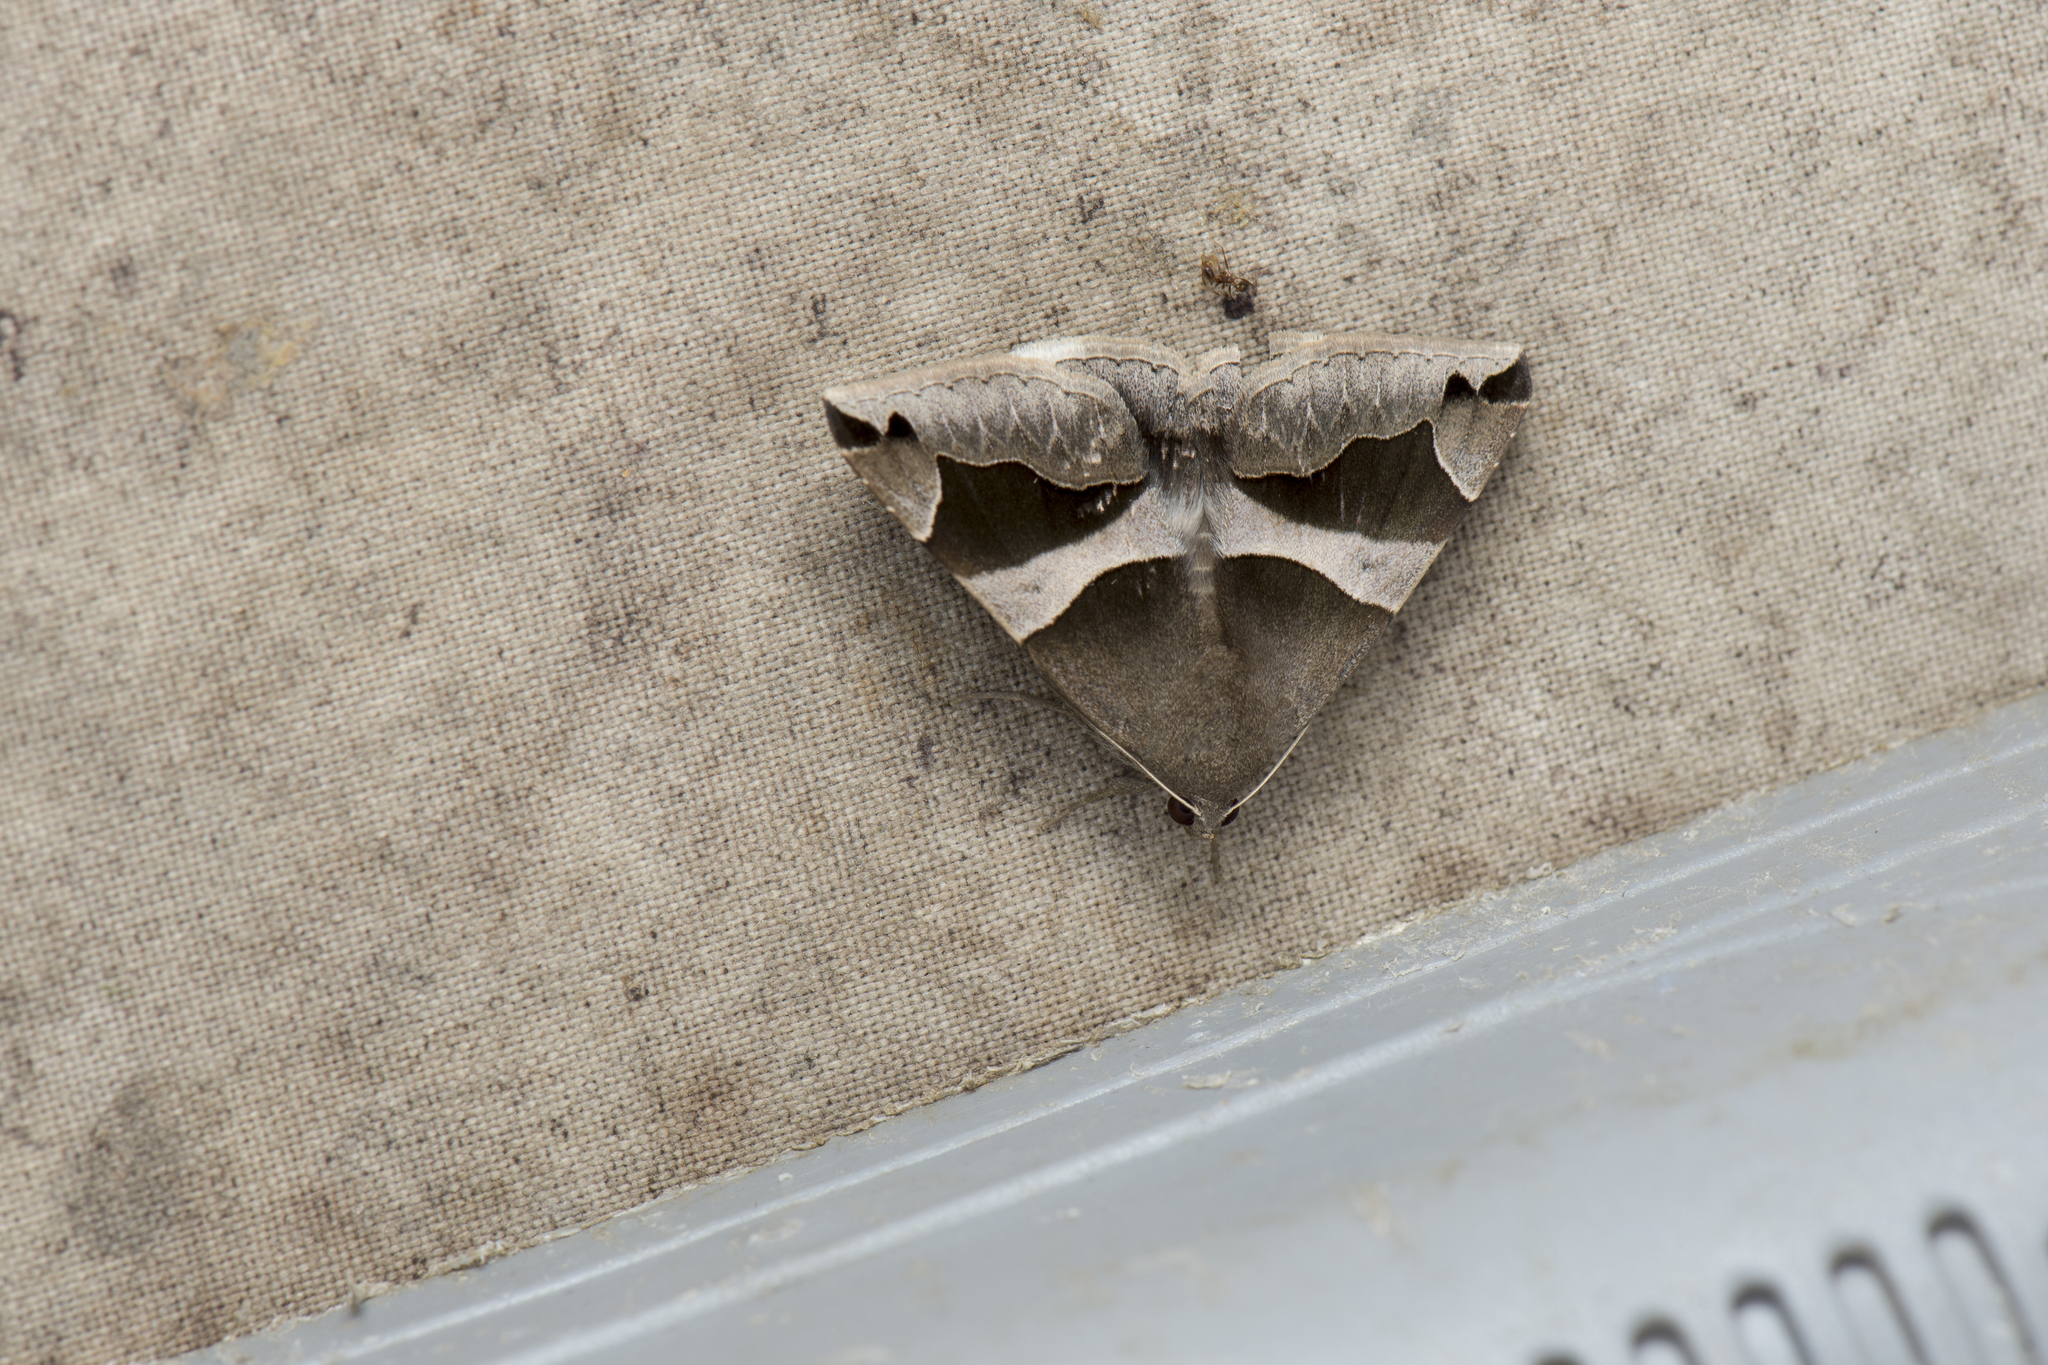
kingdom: Animalia
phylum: Arthropoda
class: Insecta
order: Lepidoptera
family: Erebidae
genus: Dysgonia
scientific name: Dysgonia stuposa
